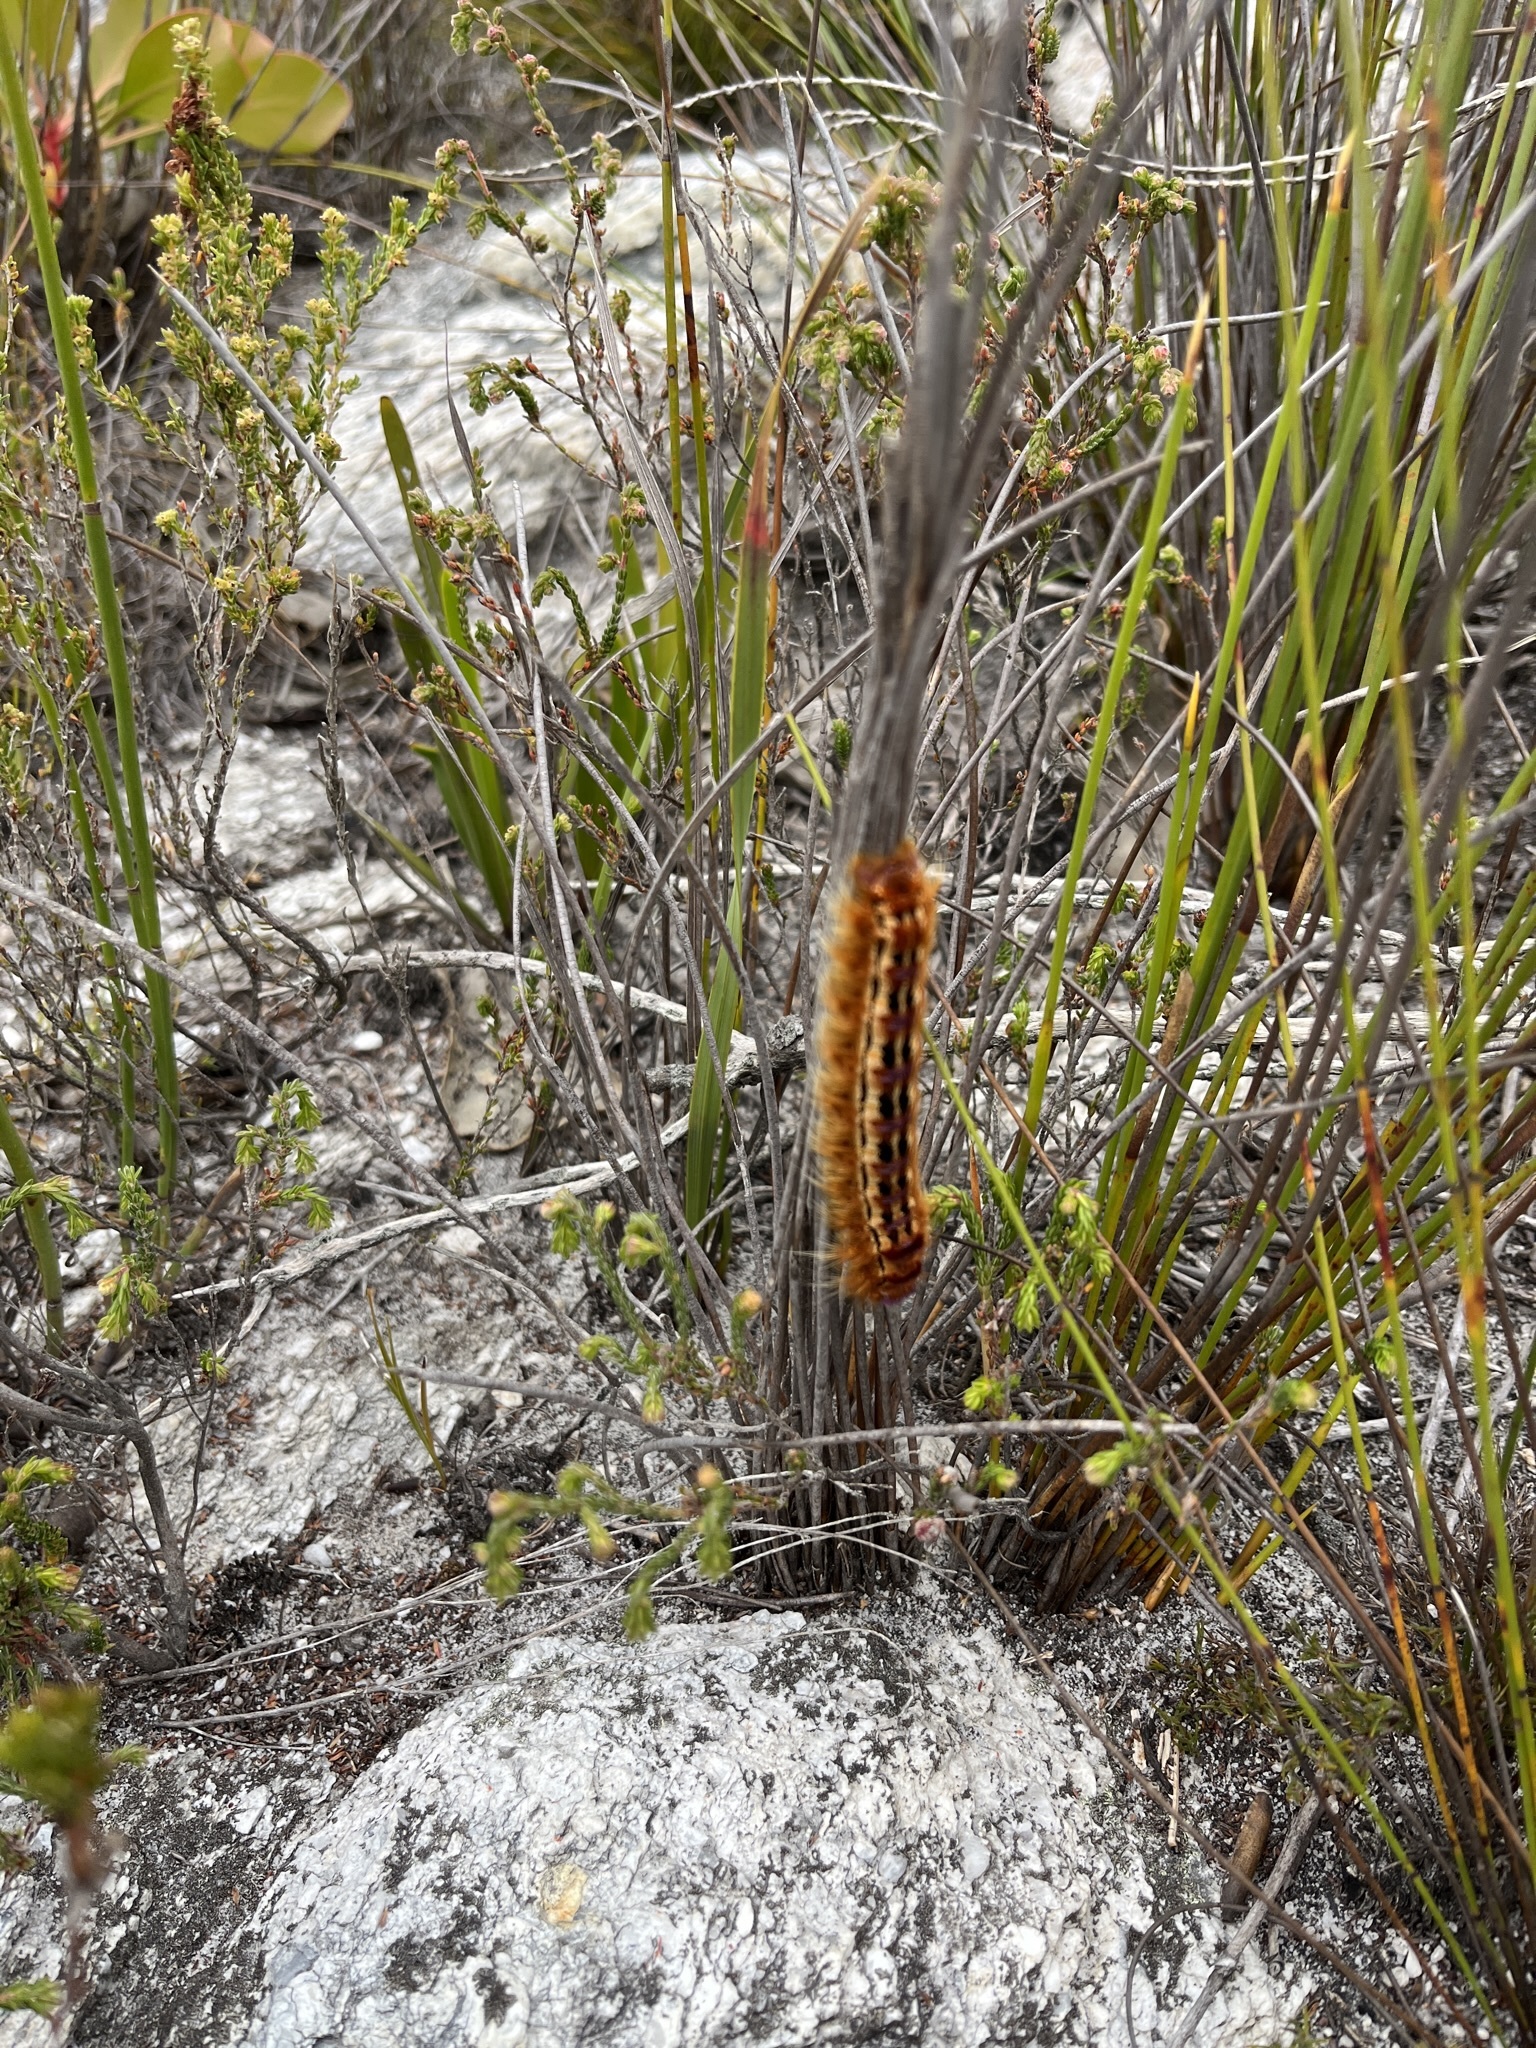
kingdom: Animalia
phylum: Arthropoda
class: Insecta
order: Lepidoptera
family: Lasiocampidae
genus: Eutricha
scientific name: Eutricha bifascia
